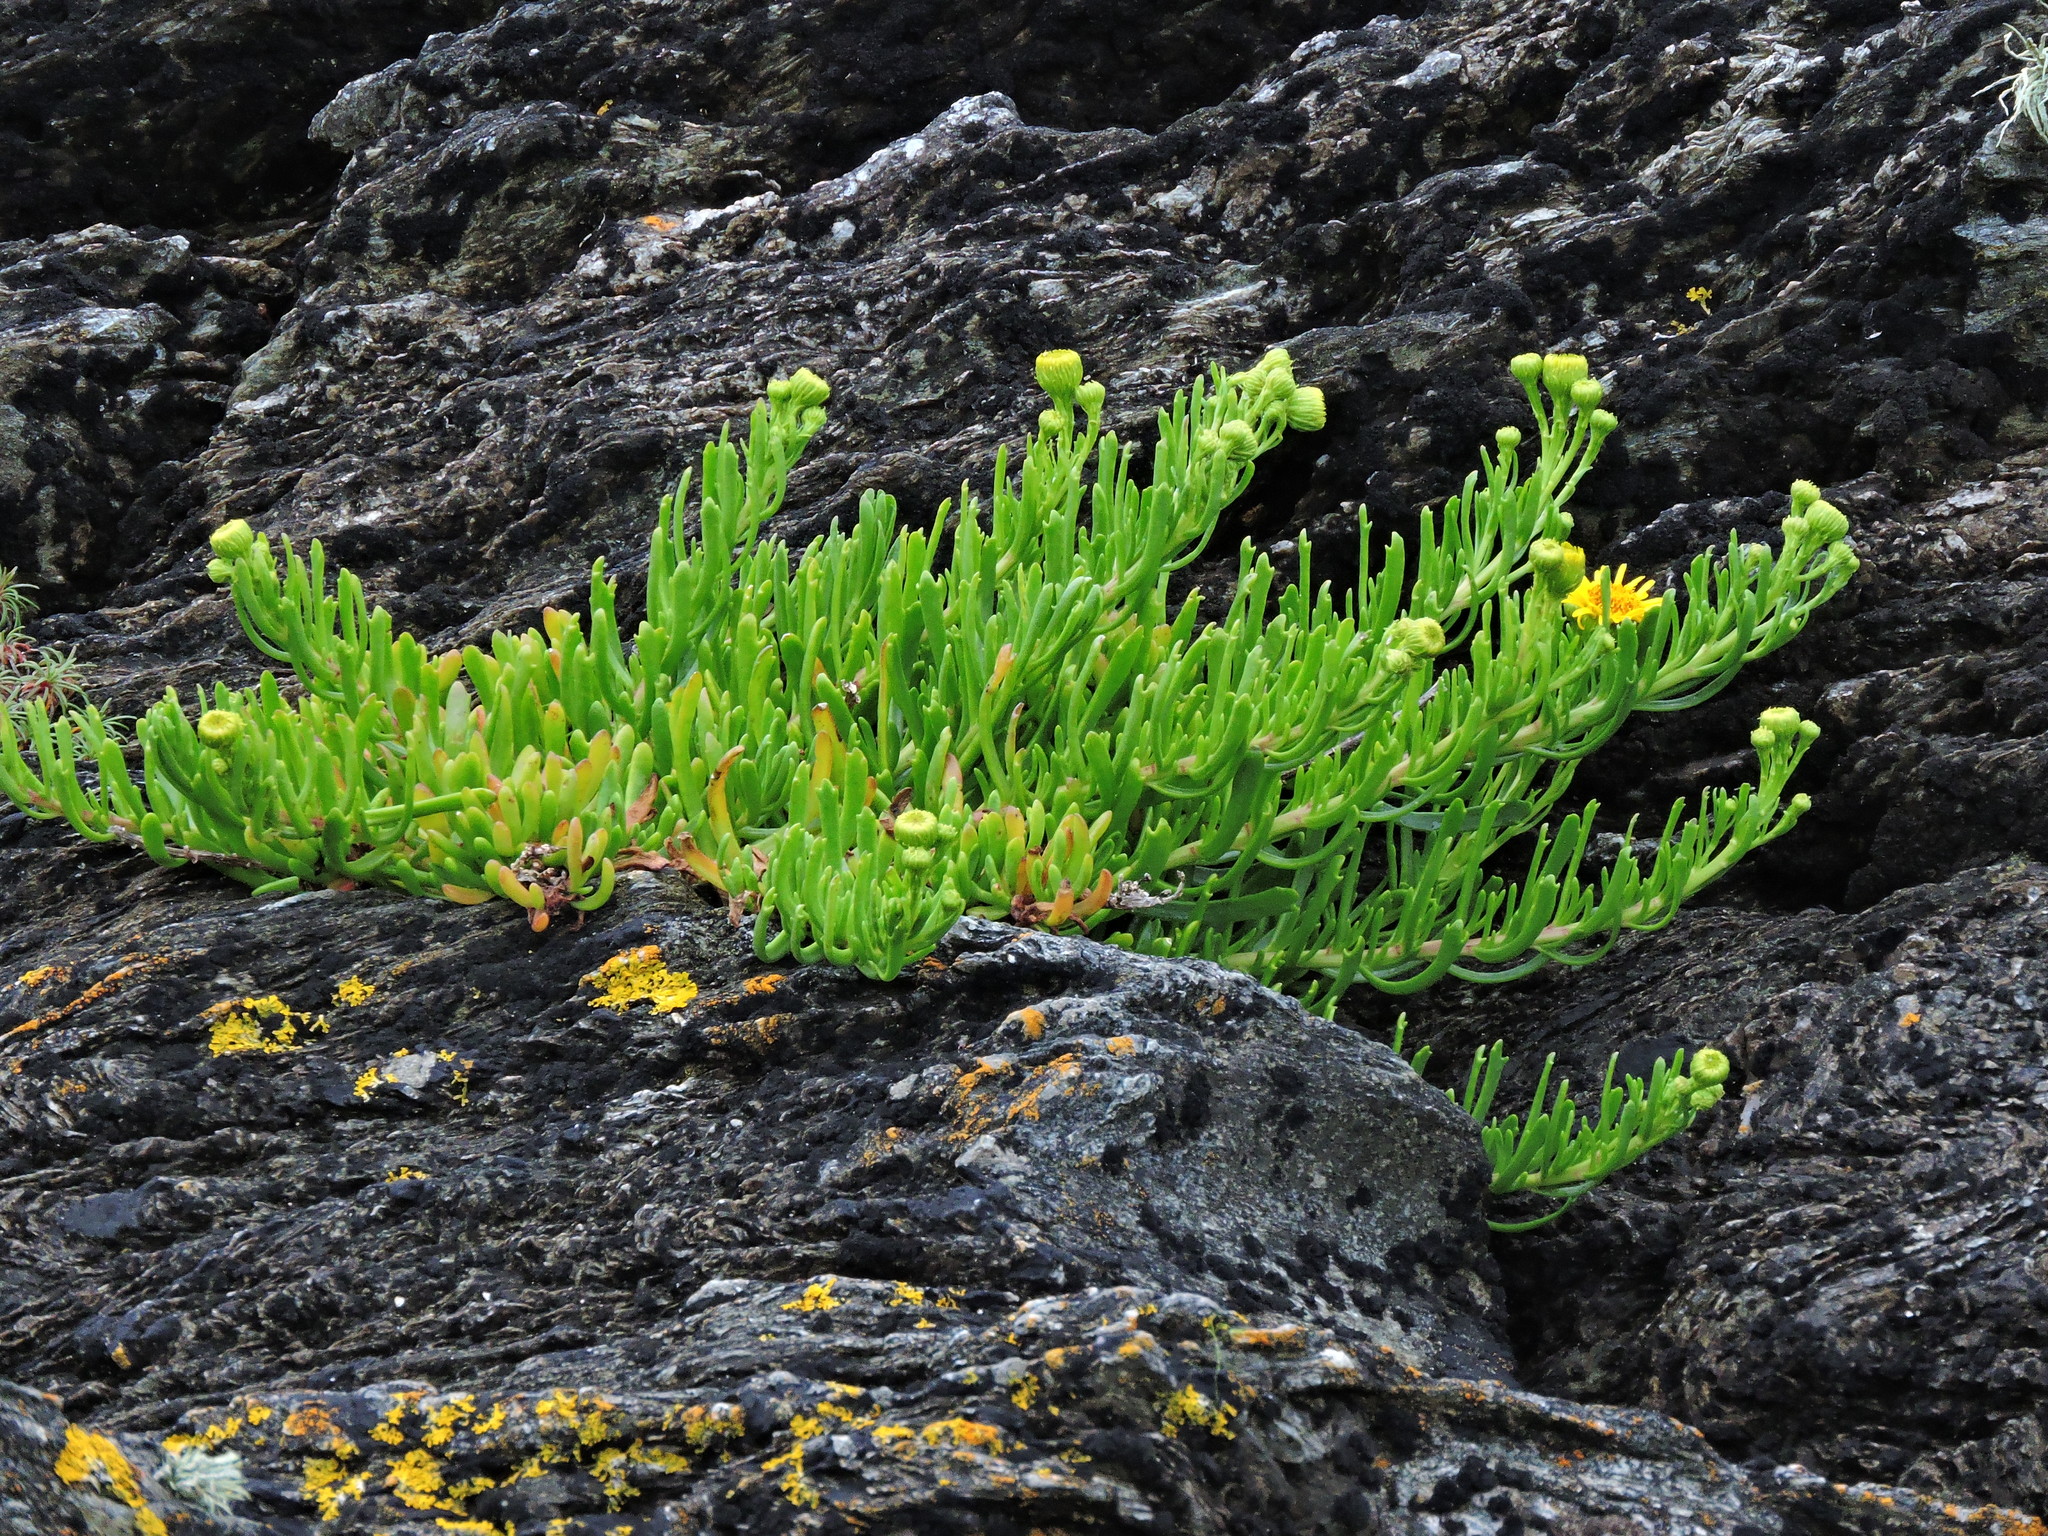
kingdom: Plantae
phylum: Tracheophyta
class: Magnoliopsida
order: Asterales
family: Asteraceae
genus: Limbarda
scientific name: Limbarda crithmoides
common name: Golden samphire
